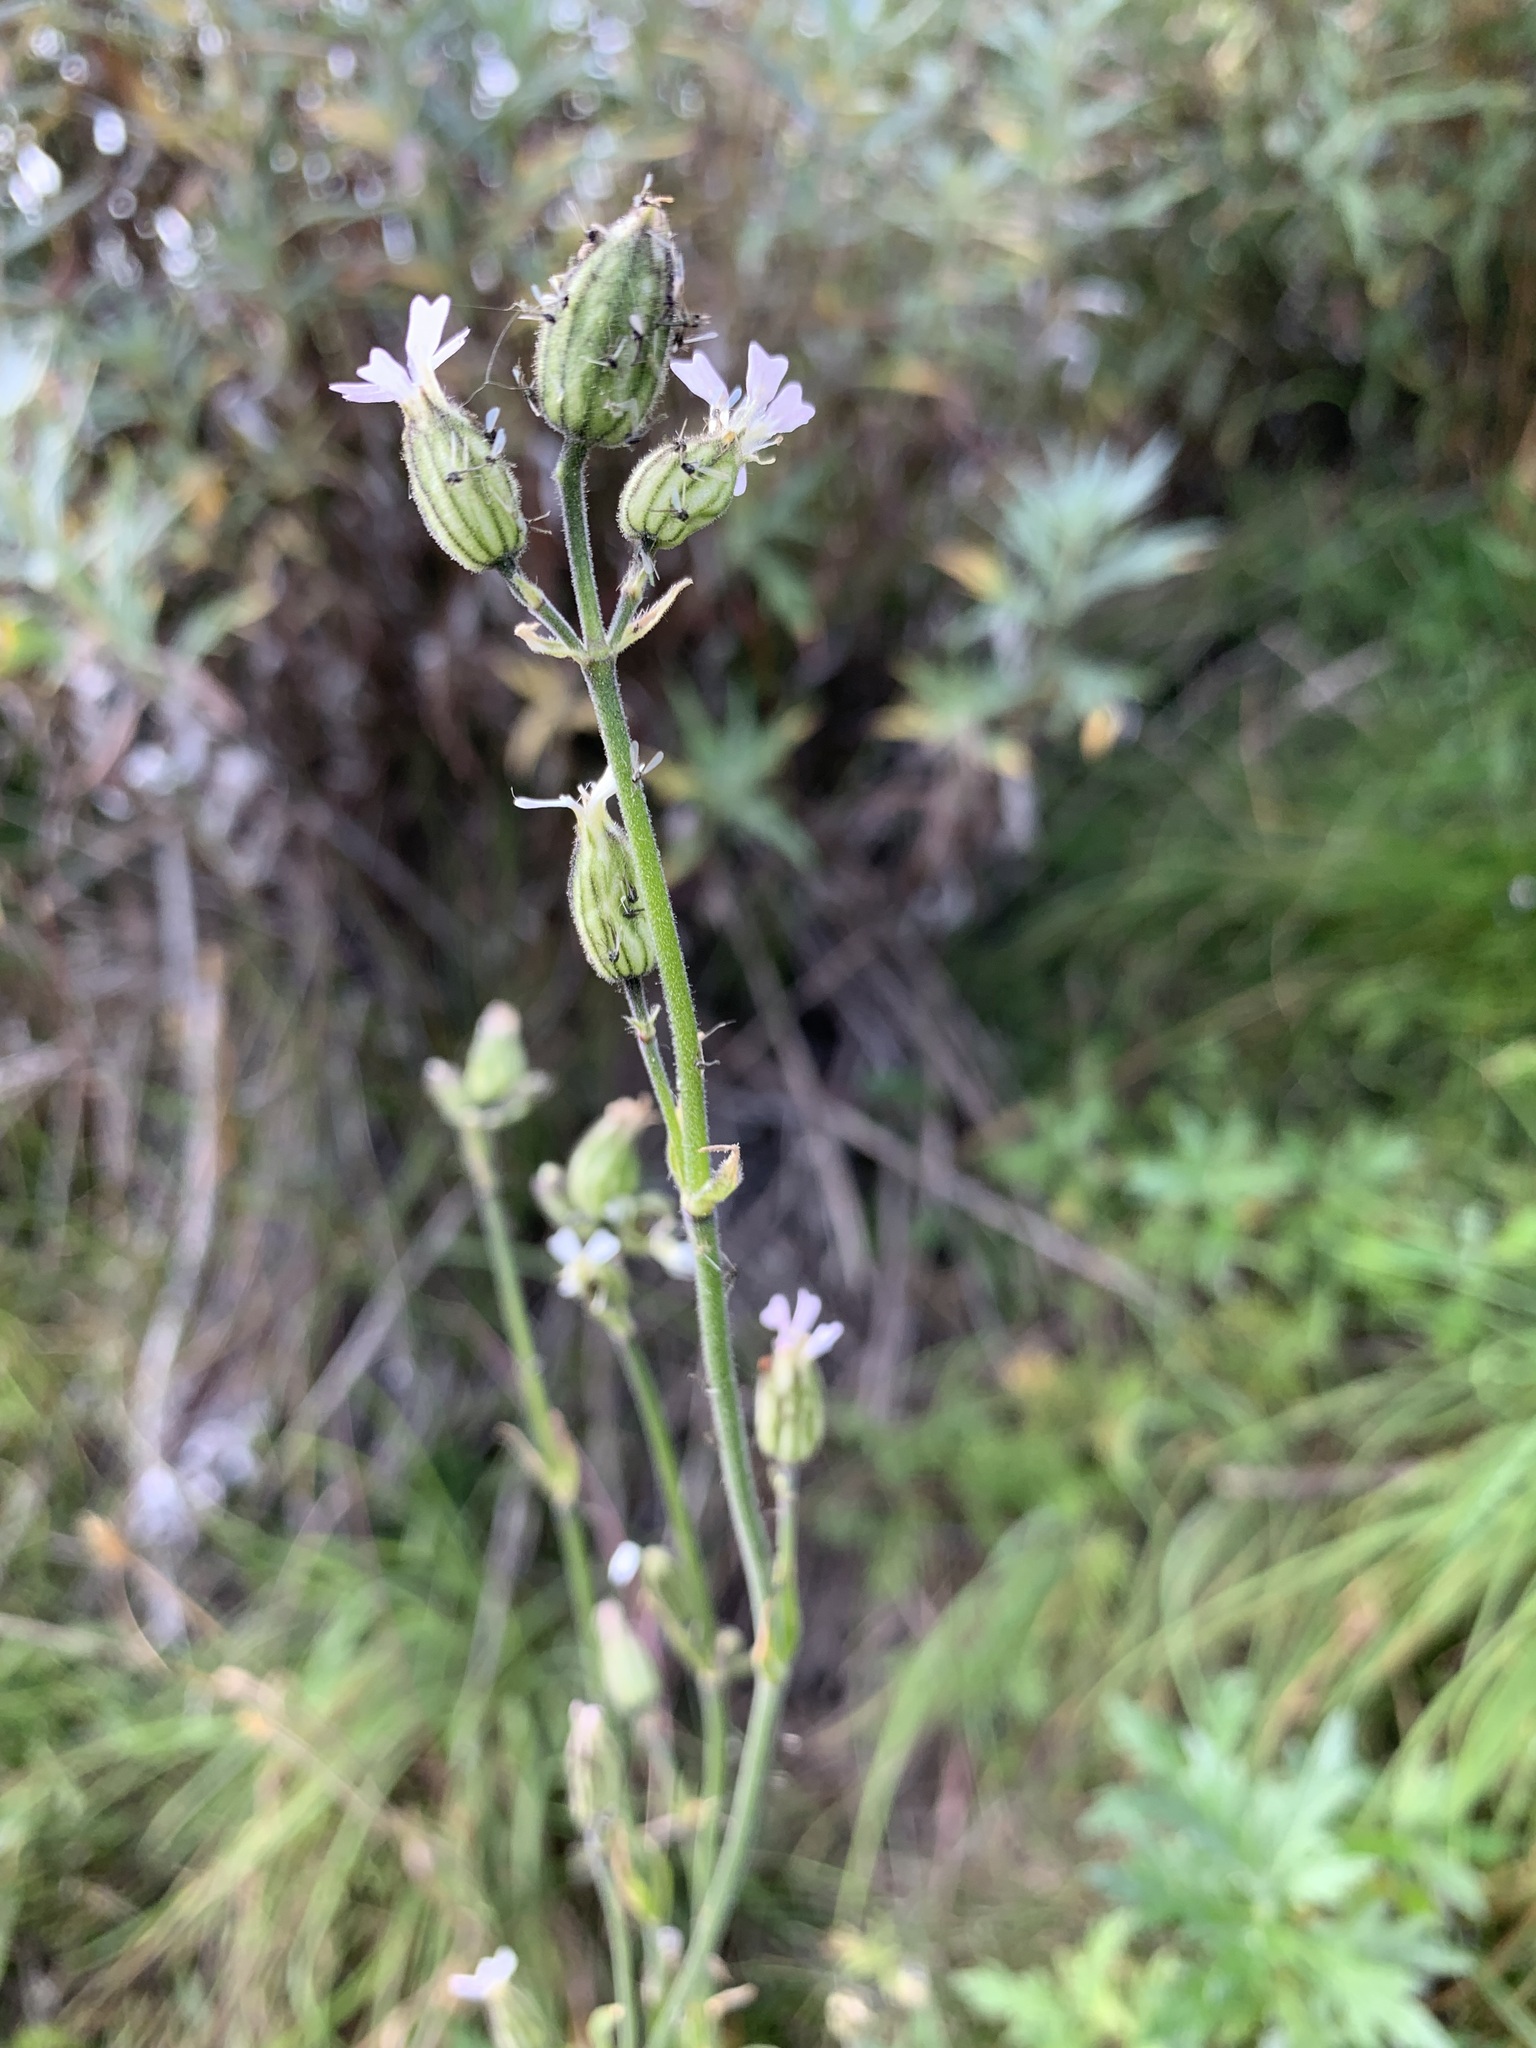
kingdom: Plantae
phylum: Tracheophyta
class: Magnoliopsida
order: Caryophyllales
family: Caryophyllaceae
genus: Silene
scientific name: Silene involucrata
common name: Greater arctic campion
